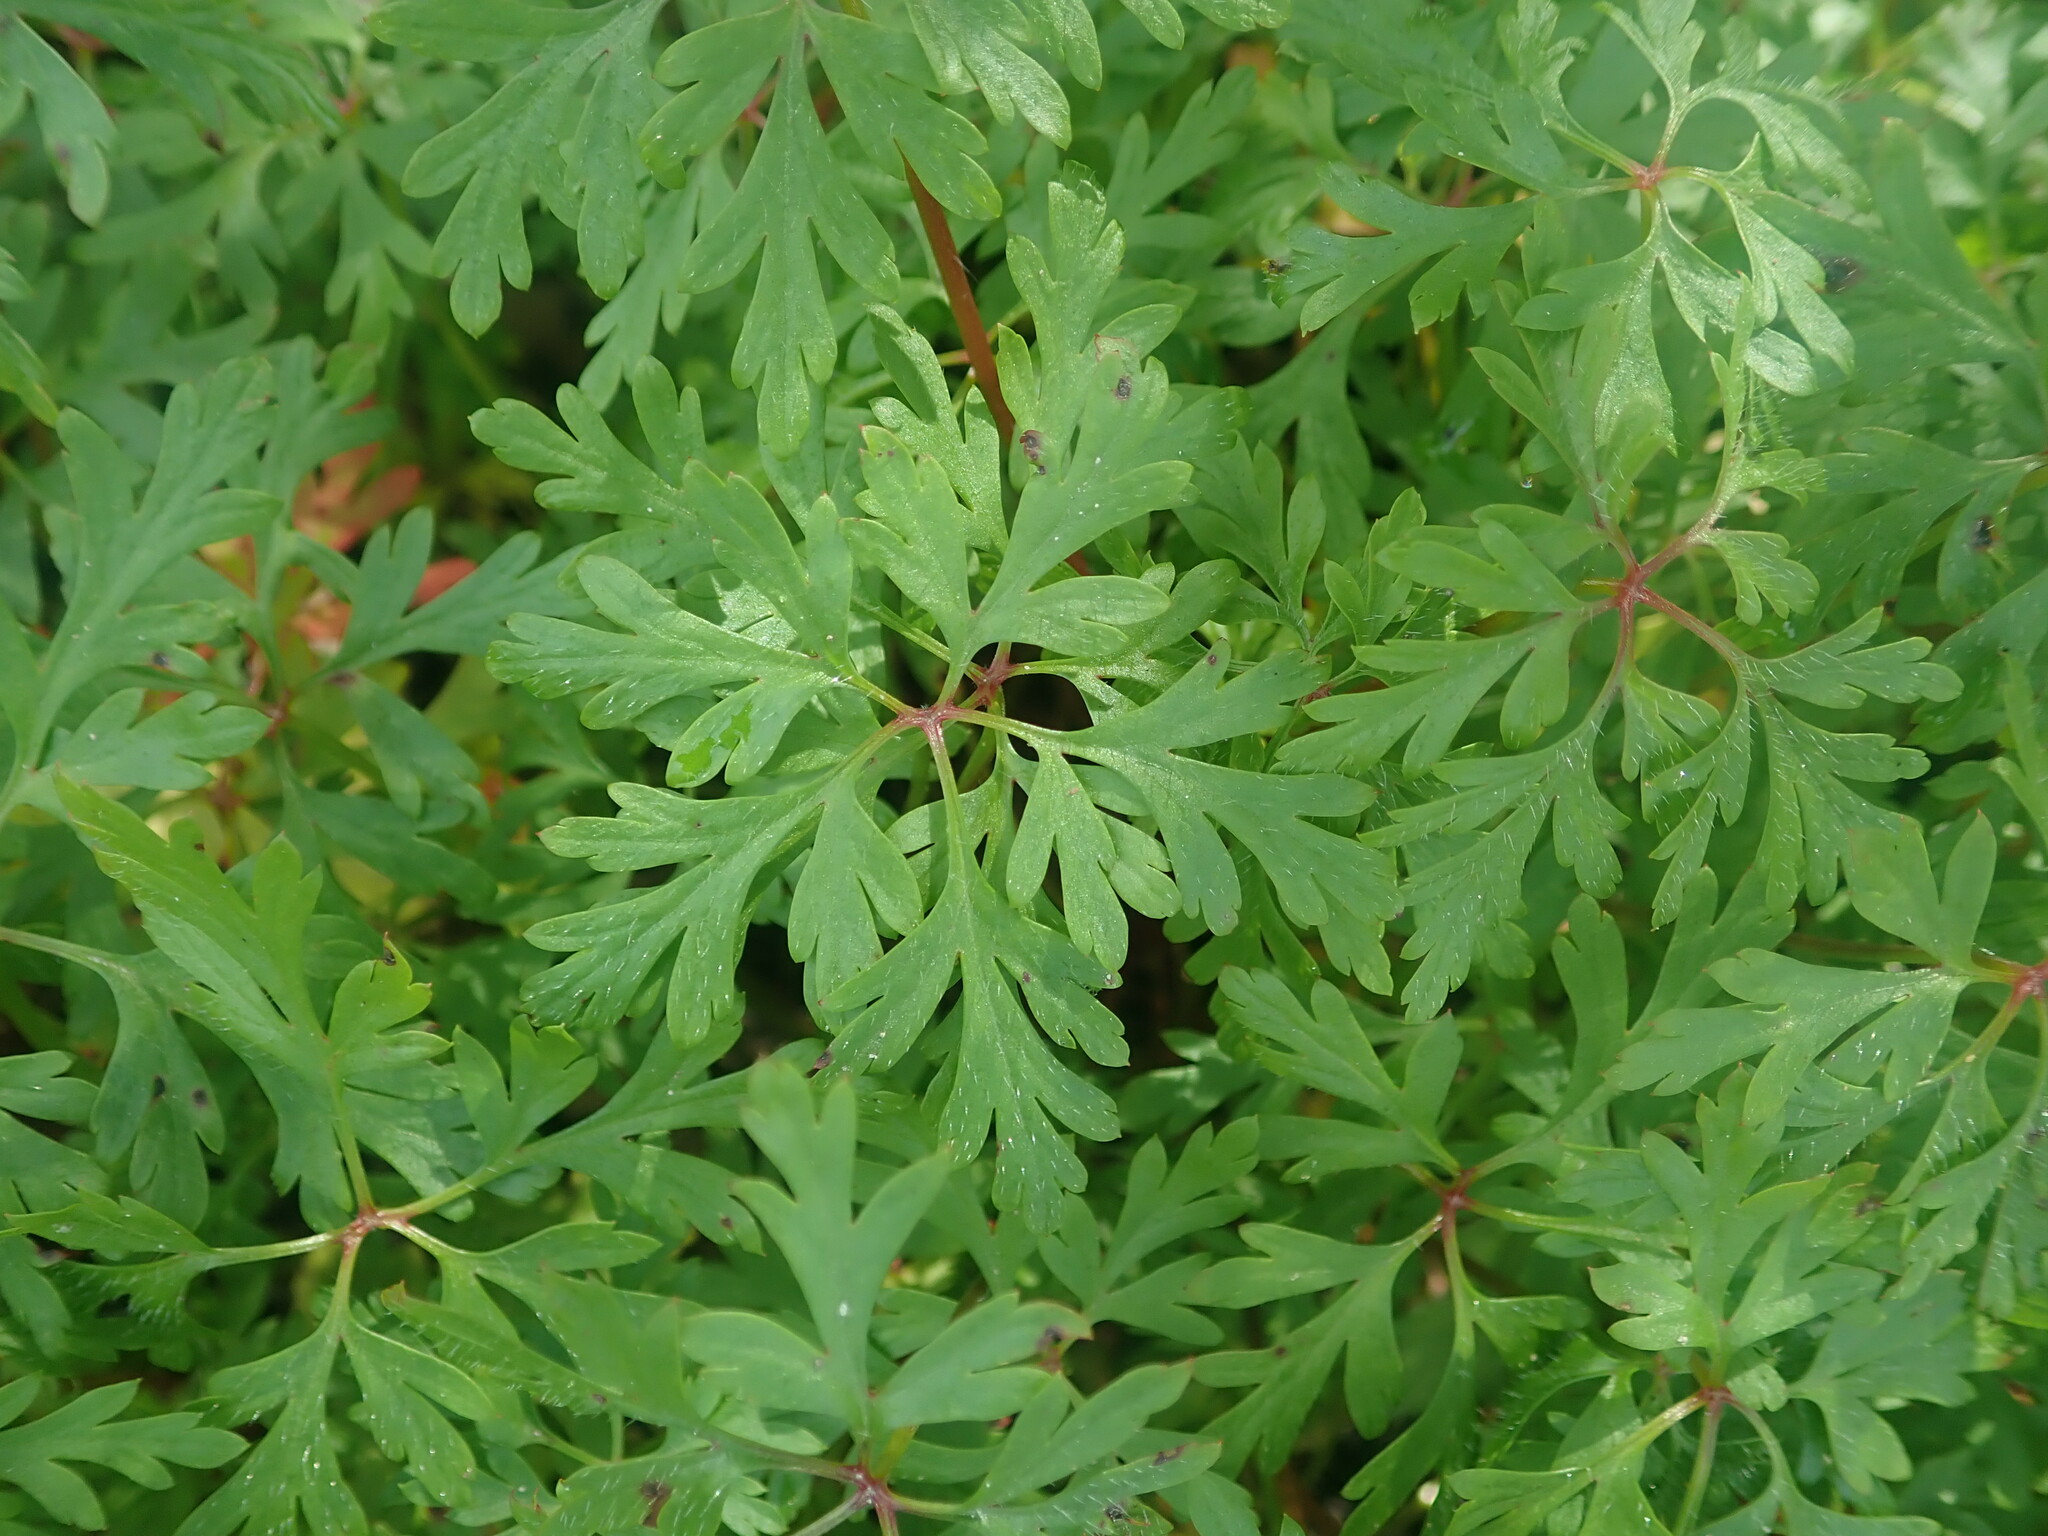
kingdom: Plantae
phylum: Tracheophyta
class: Magnoliopsida
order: Geraniales
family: Geraniaceae
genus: Geranium
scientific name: Geranium
